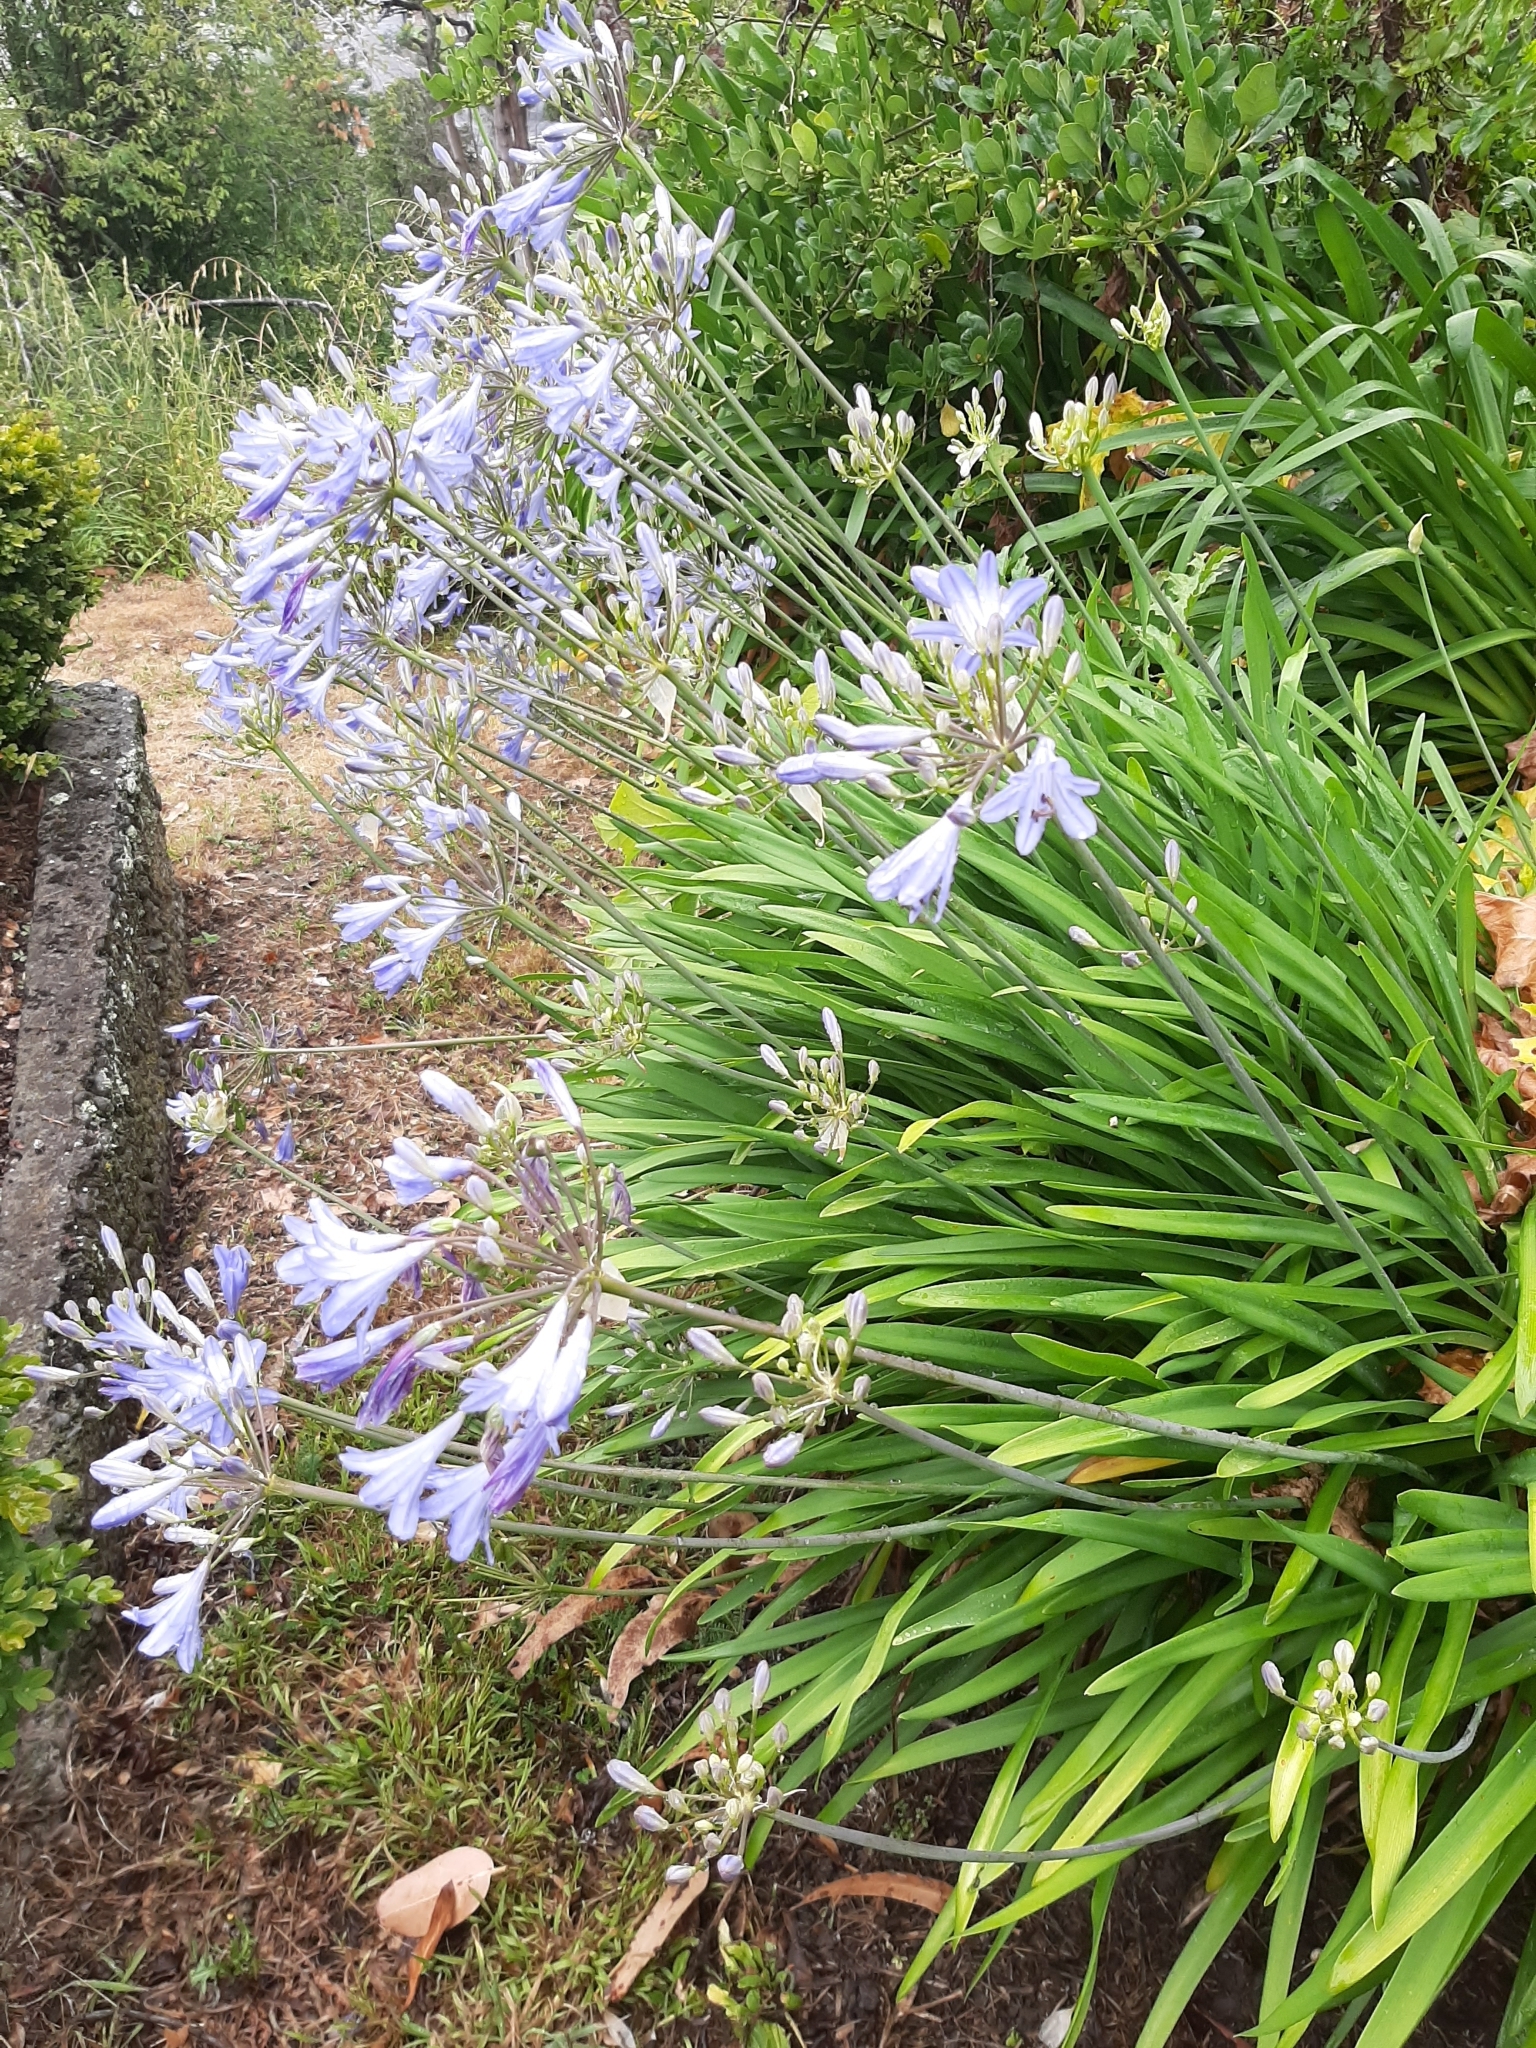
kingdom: Plantae
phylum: Tracheophyta
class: Liliopsida
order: Asparagales
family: Amaryllidaceae
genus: Agapanthus
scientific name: Agapanthus praecox
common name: African-lily
